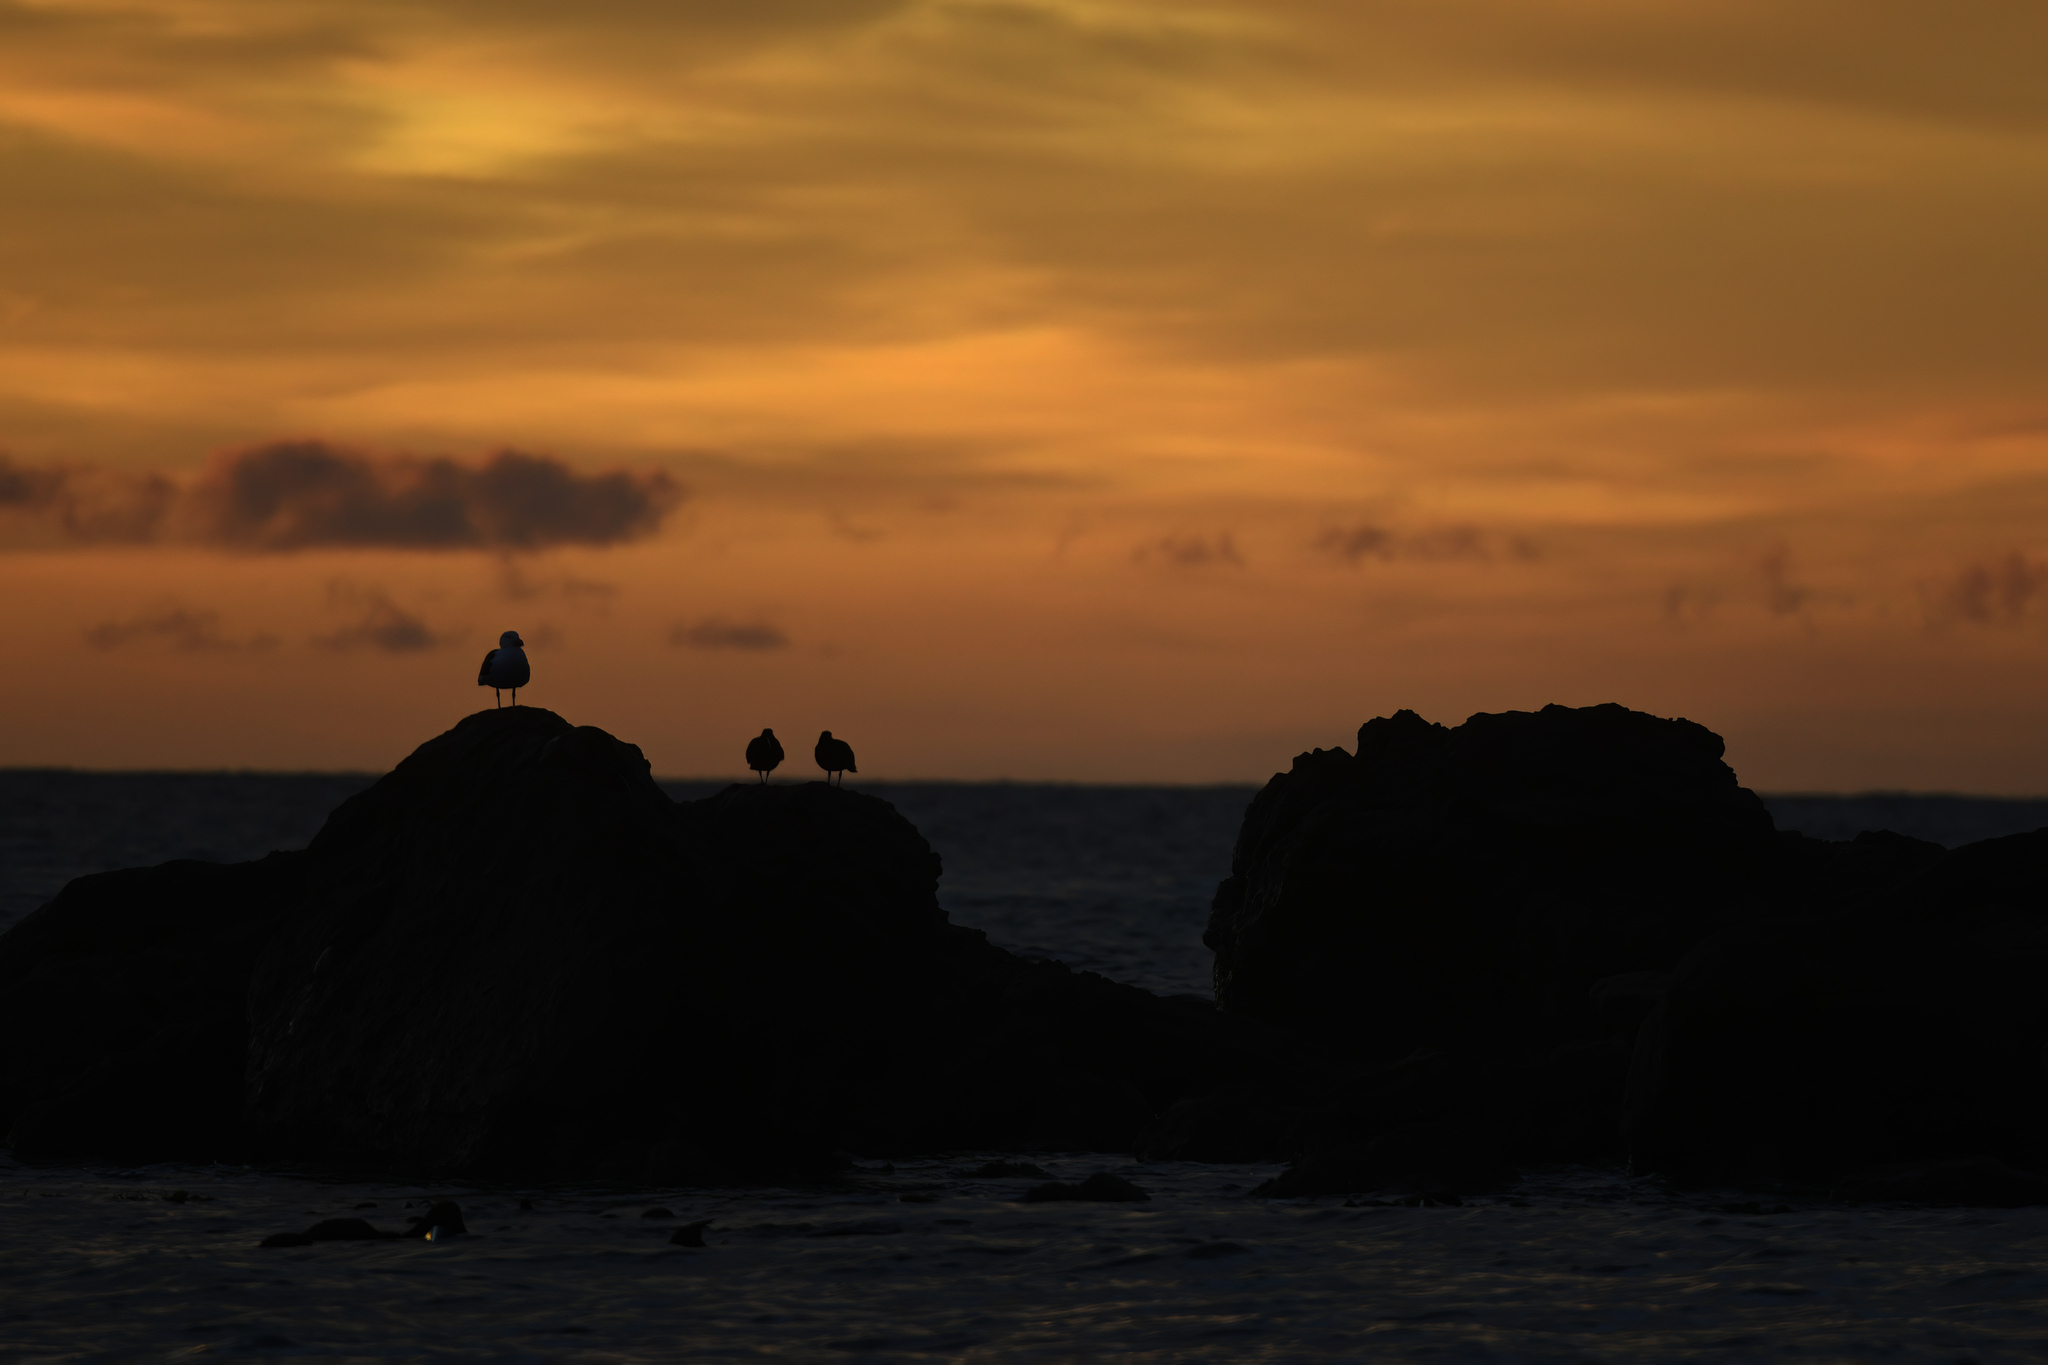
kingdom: Animalia
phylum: Chordata
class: Aves
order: Charadriiformes
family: Laridae
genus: Larus
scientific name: Larus pacificus
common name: Pacific gull
